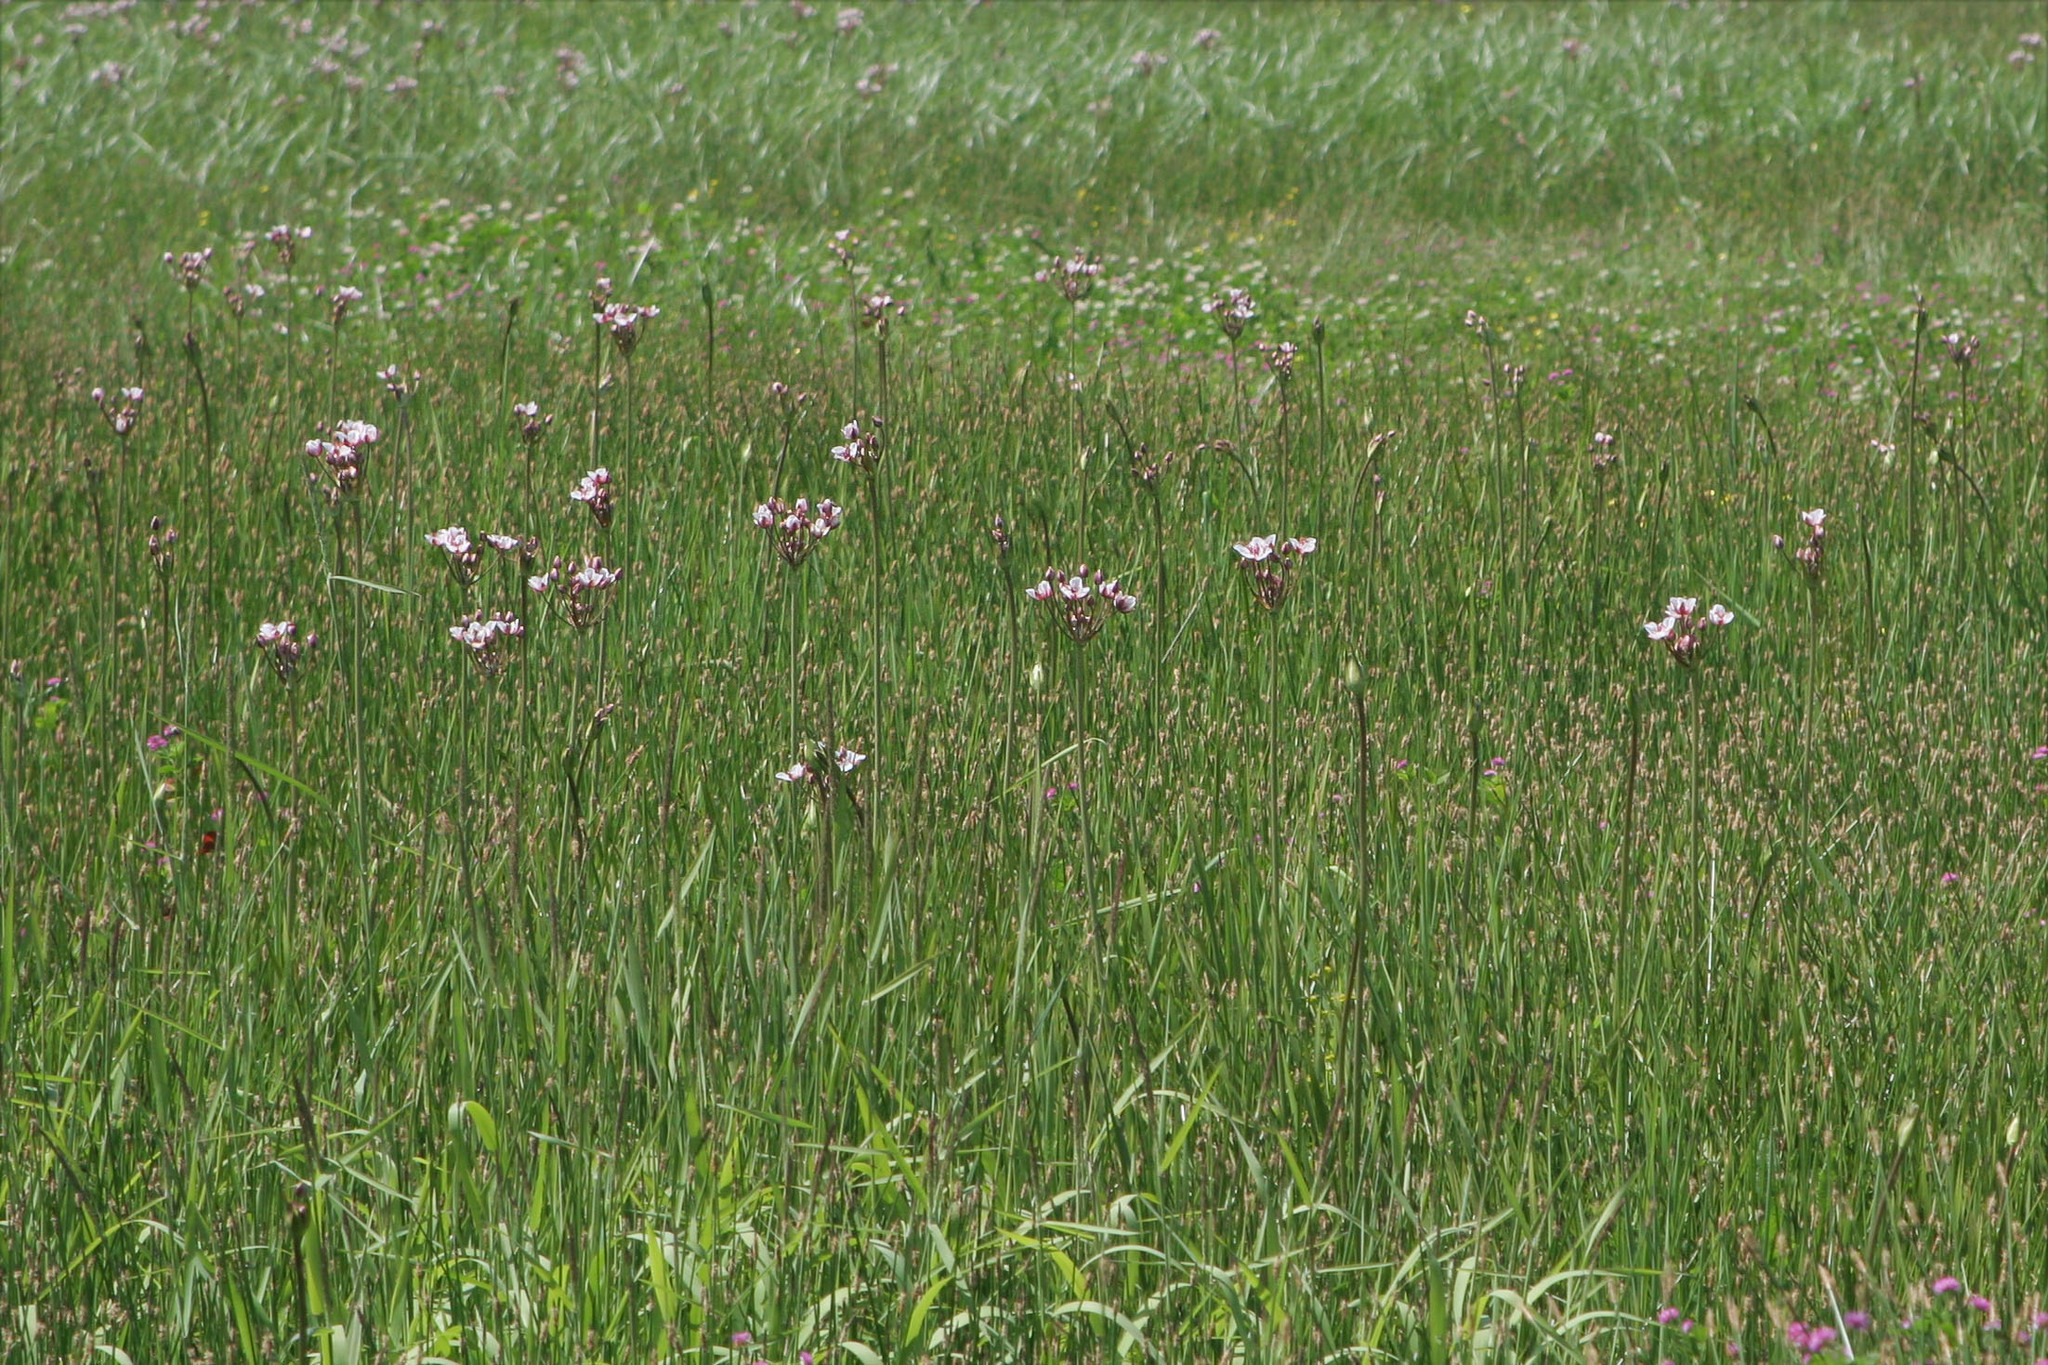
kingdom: Plantae
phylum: Tracheophyta
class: Liliopsida
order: Alismatales
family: Butomaceae
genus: Butomus
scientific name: Butomus umbellatus
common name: Flowering-rush
